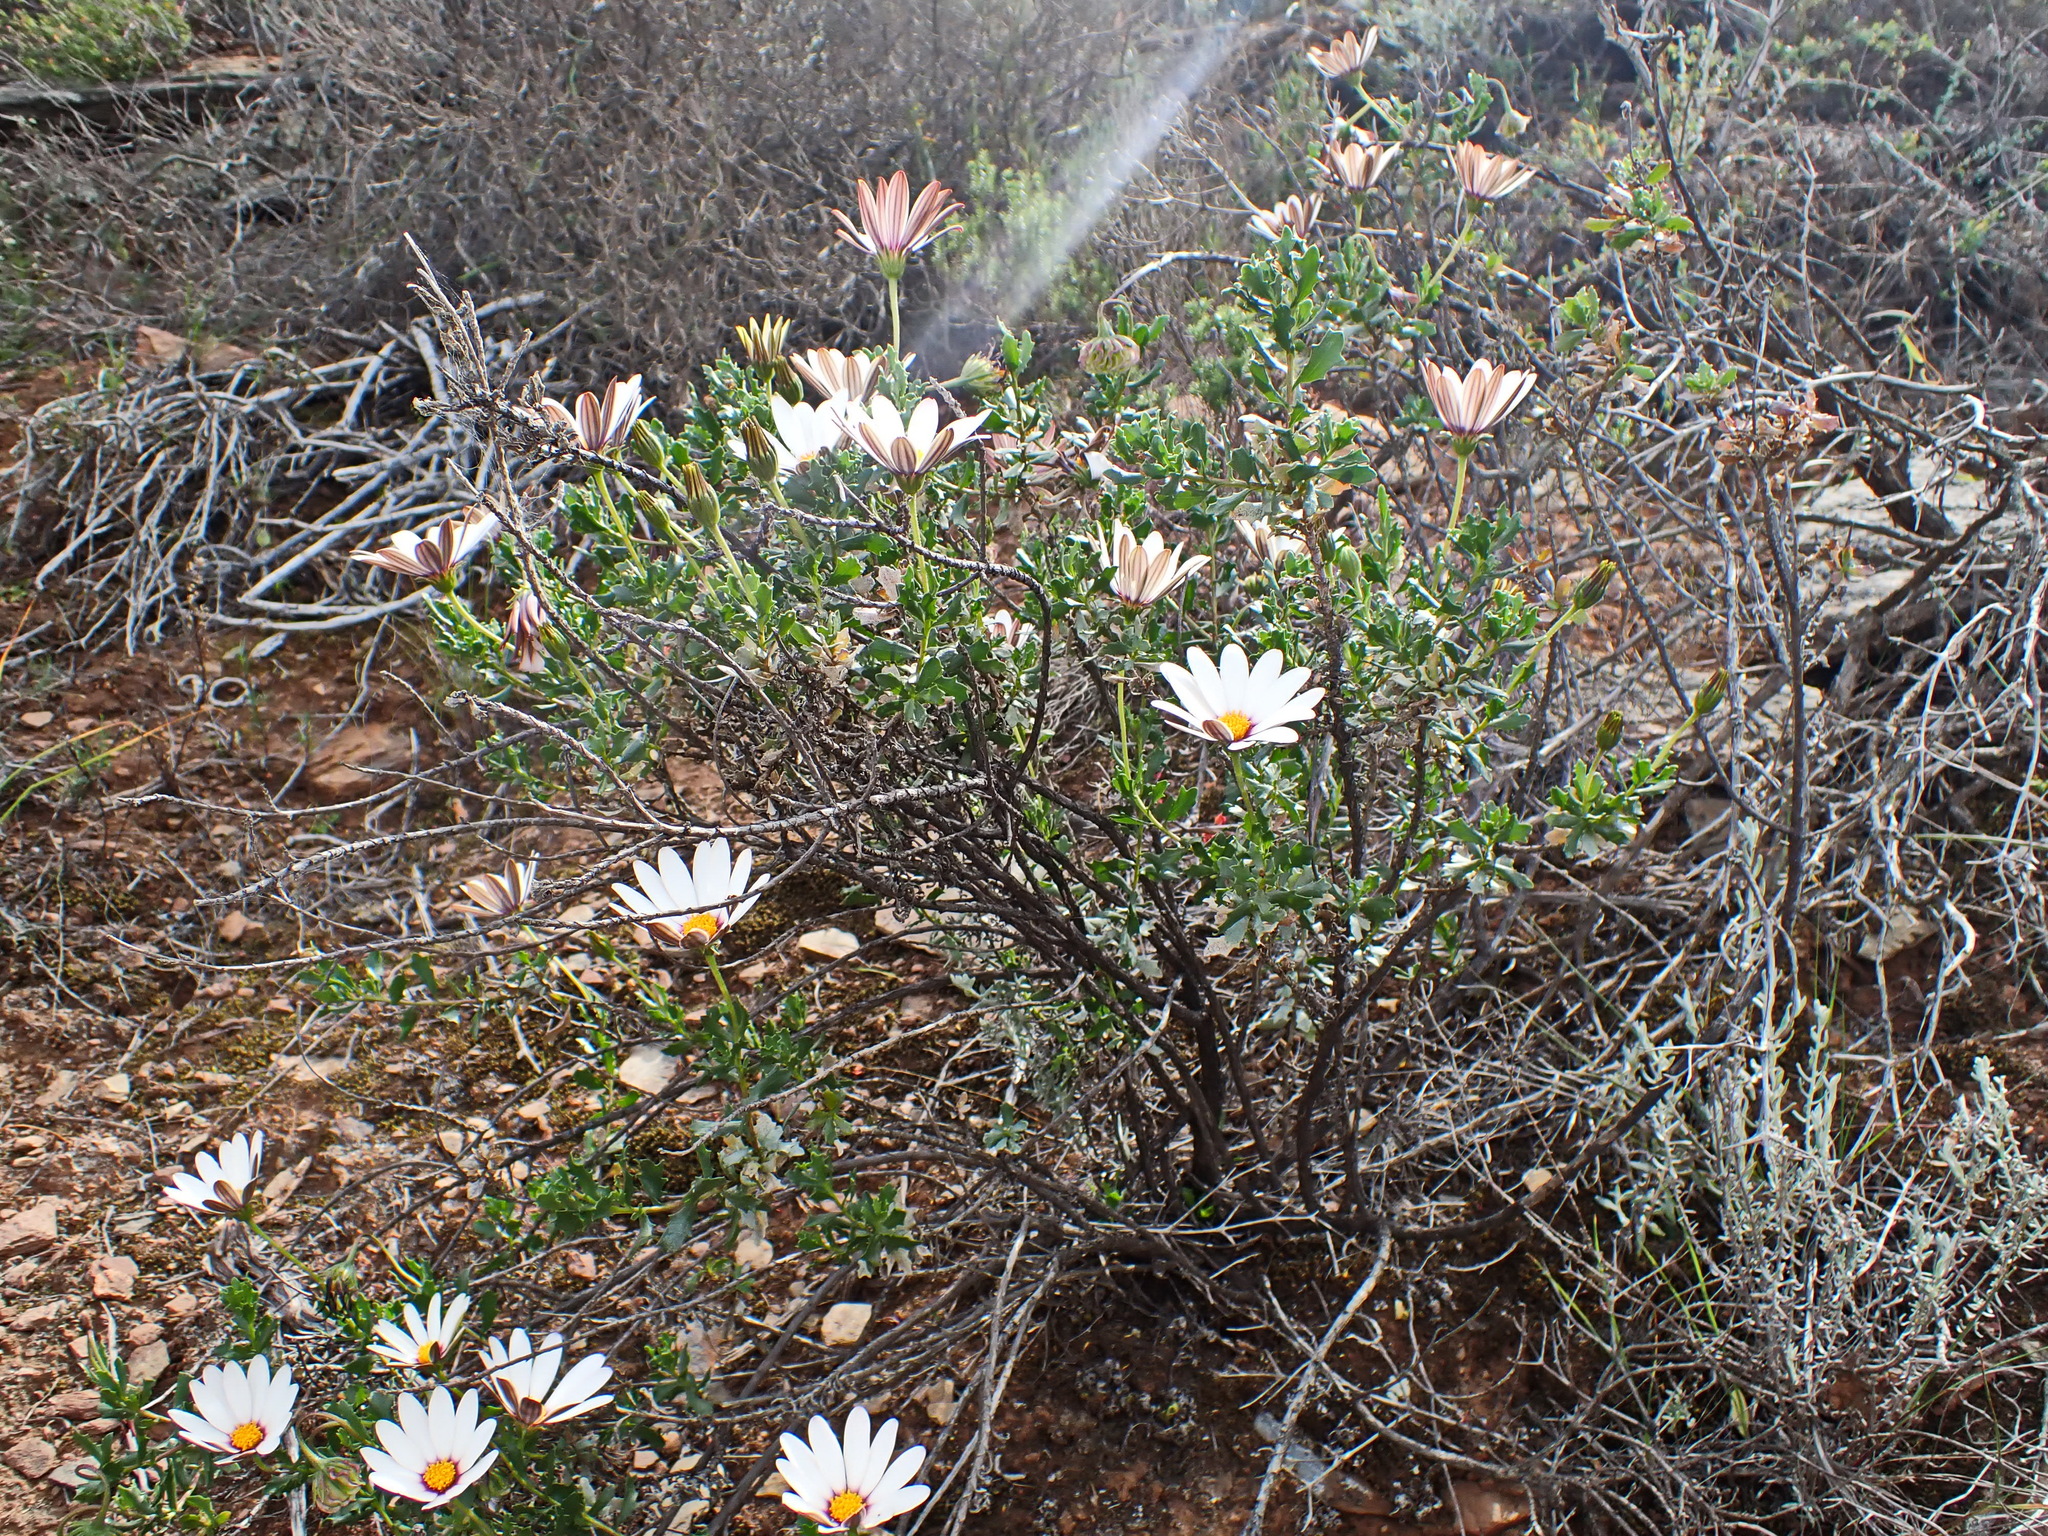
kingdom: Plantae
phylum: Tracheophyta
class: Magnoliopsida
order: Asterales
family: Asteraceae
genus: Dimorphotheca
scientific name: Dimorphotheca cuneata
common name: Daisy
